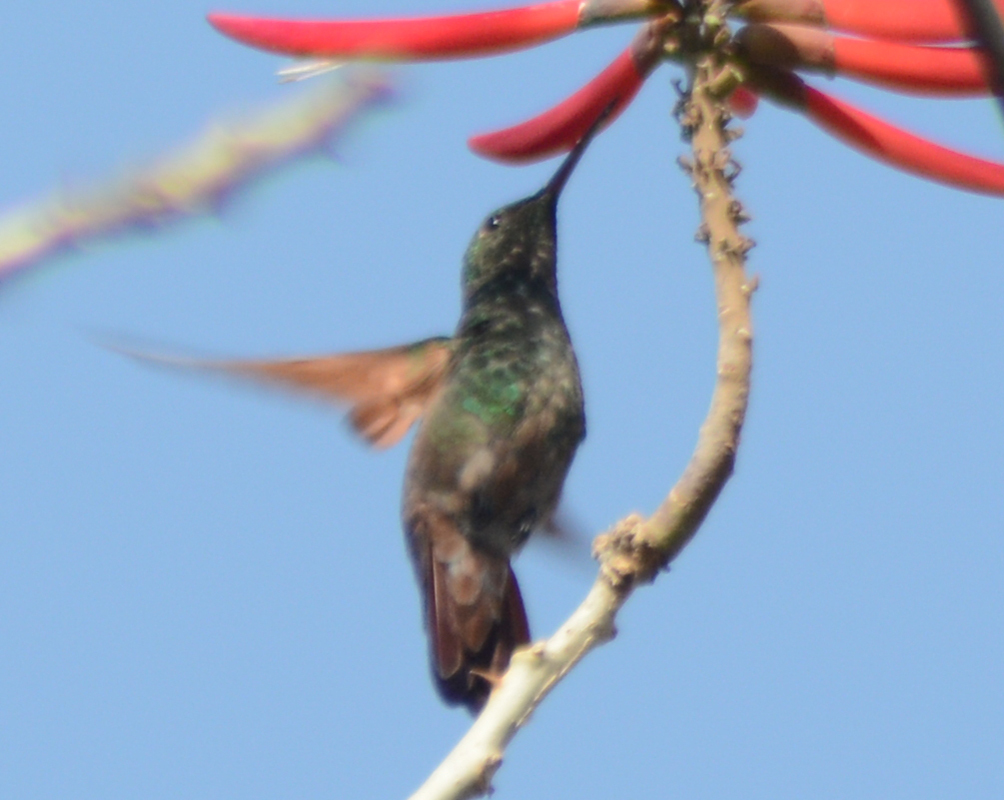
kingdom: Animalia
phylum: Chordata
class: Aves
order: Apodiformes
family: Trochilidae
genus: Saucerottia
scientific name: Saucerottia beryllina
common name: Berylline hummingbird
